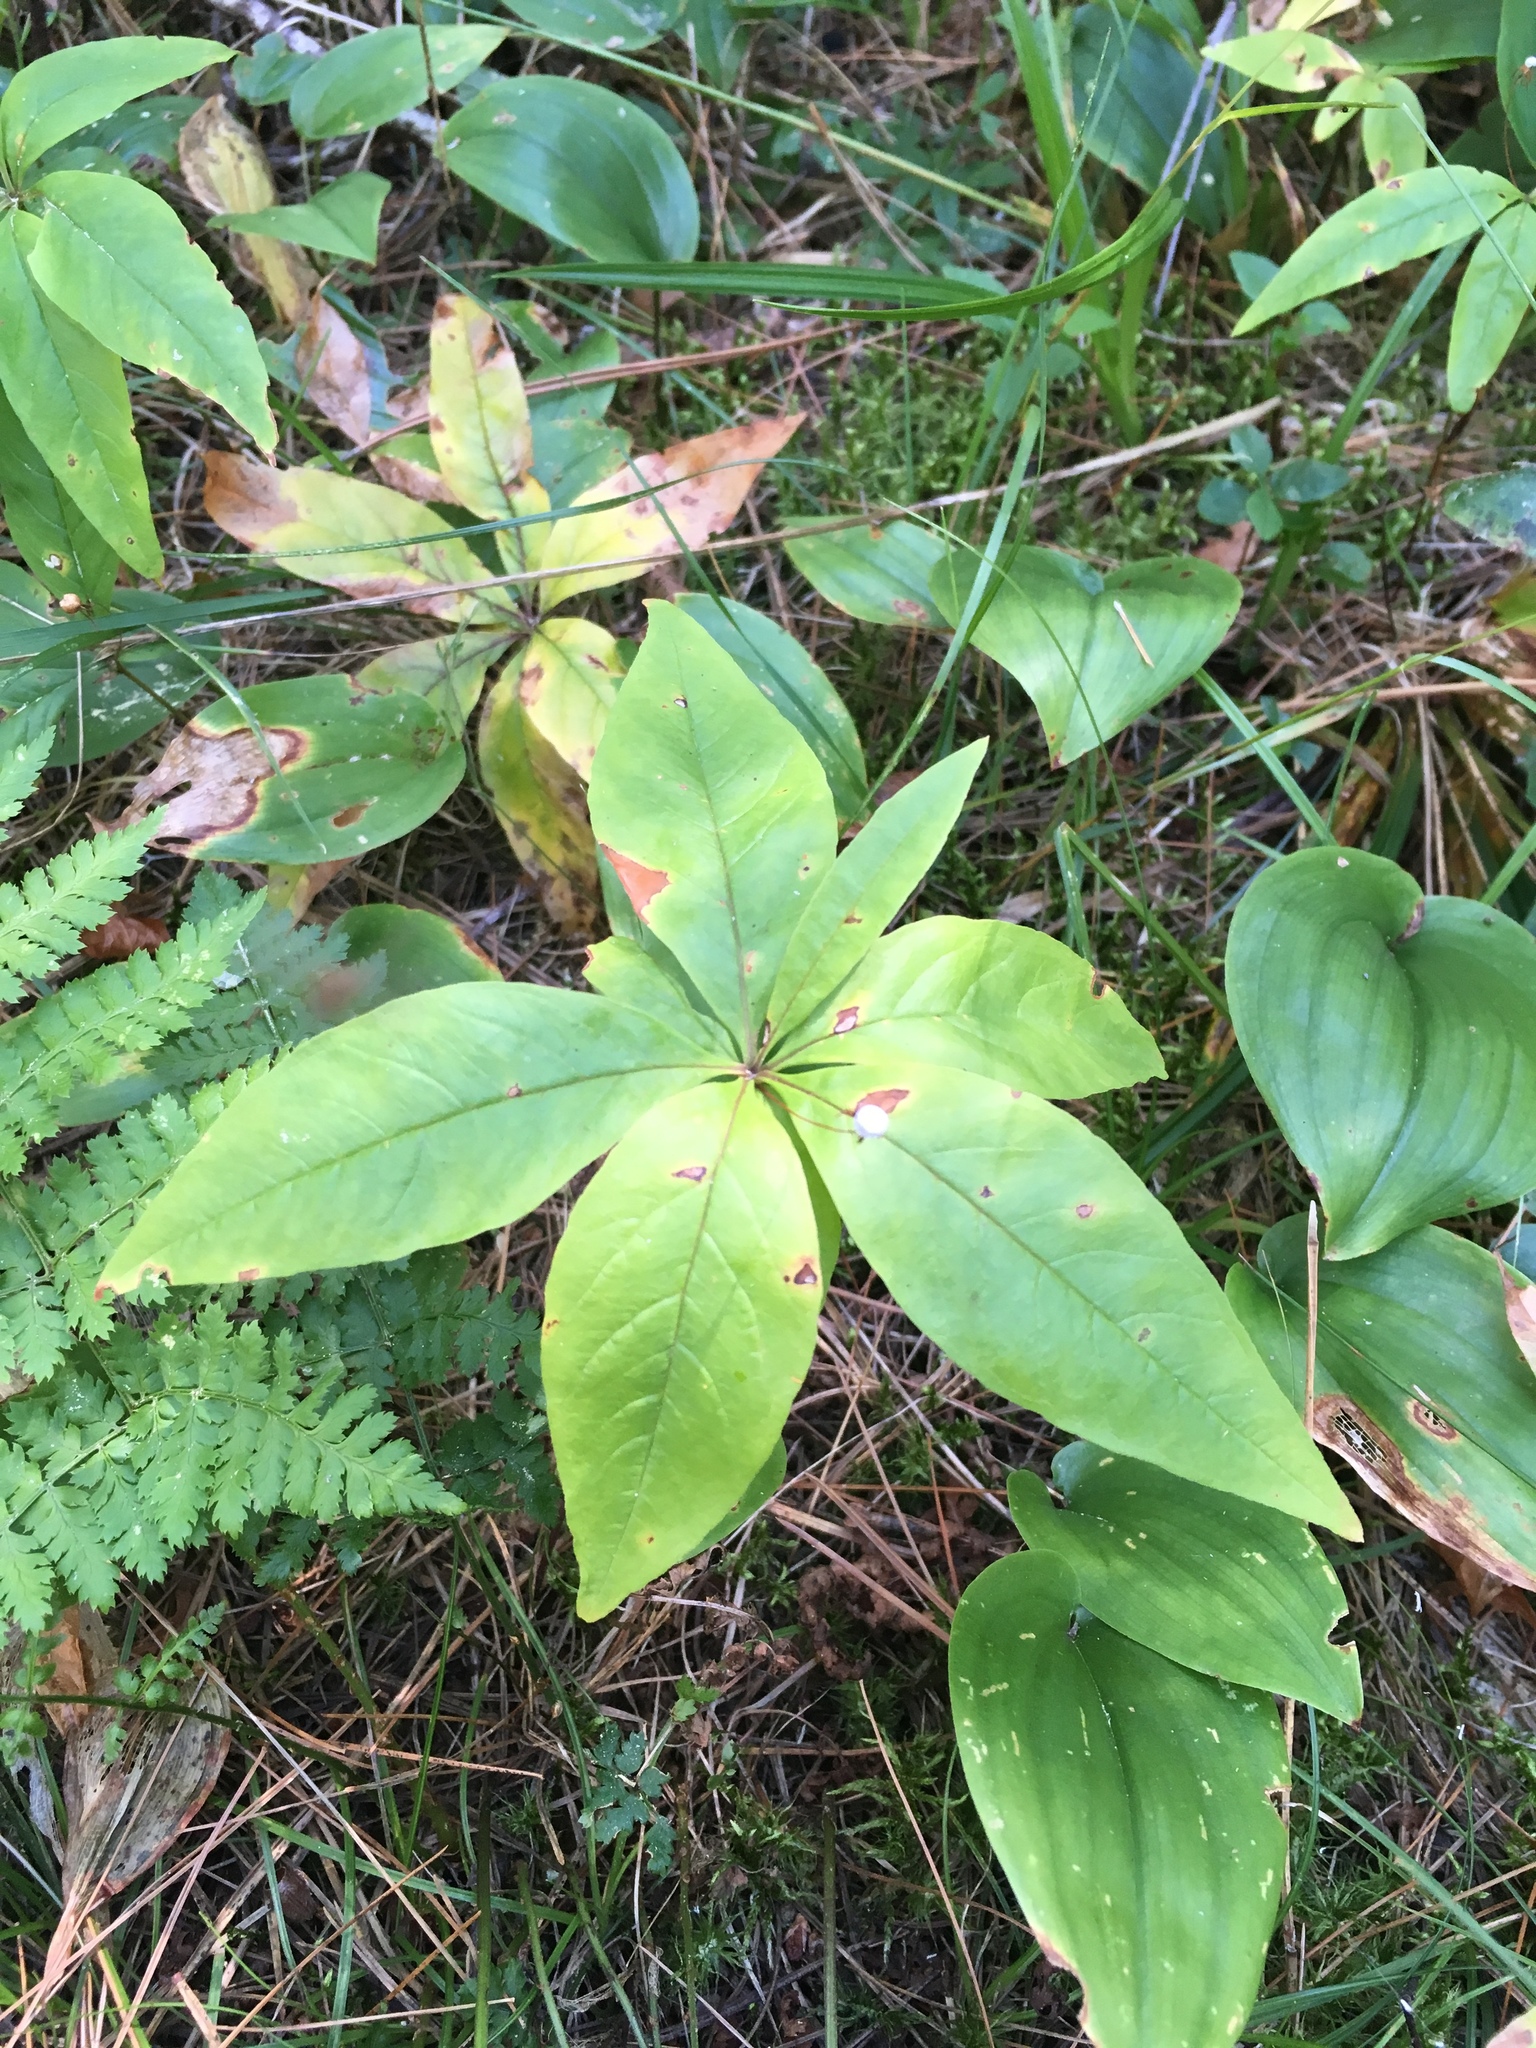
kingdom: Plantae
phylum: Tracheophyta
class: Magnoliopsida
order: Ericales
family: Primulaceae
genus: Lysimachia
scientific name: Lysimachia borealis
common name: American starflower
